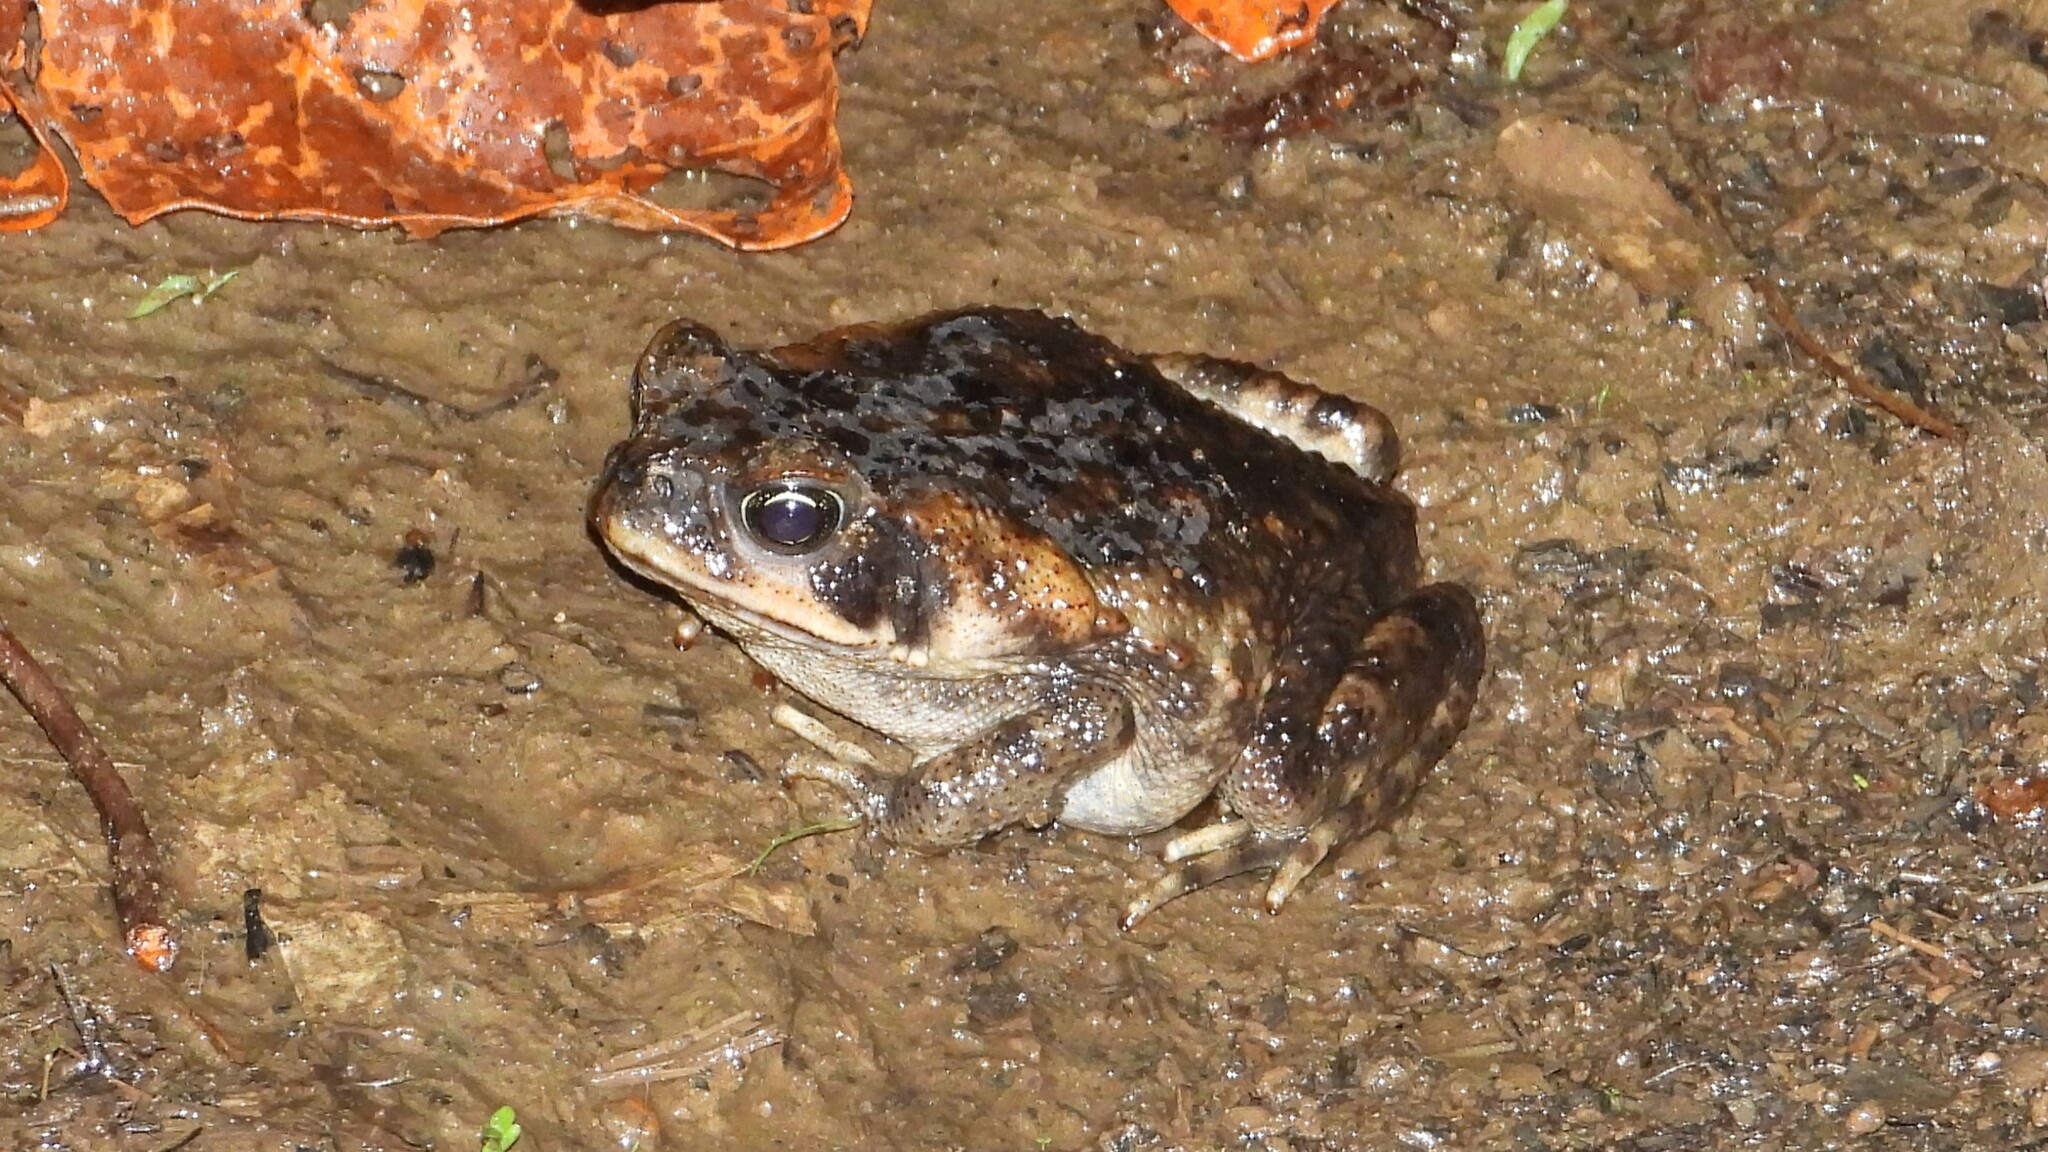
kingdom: Animalia
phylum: Chordata
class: Amphibia
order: Anura
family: Bufonidae
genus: Rhinella
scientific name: Rhinella horribilis
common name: Mesoamerican cane toad
